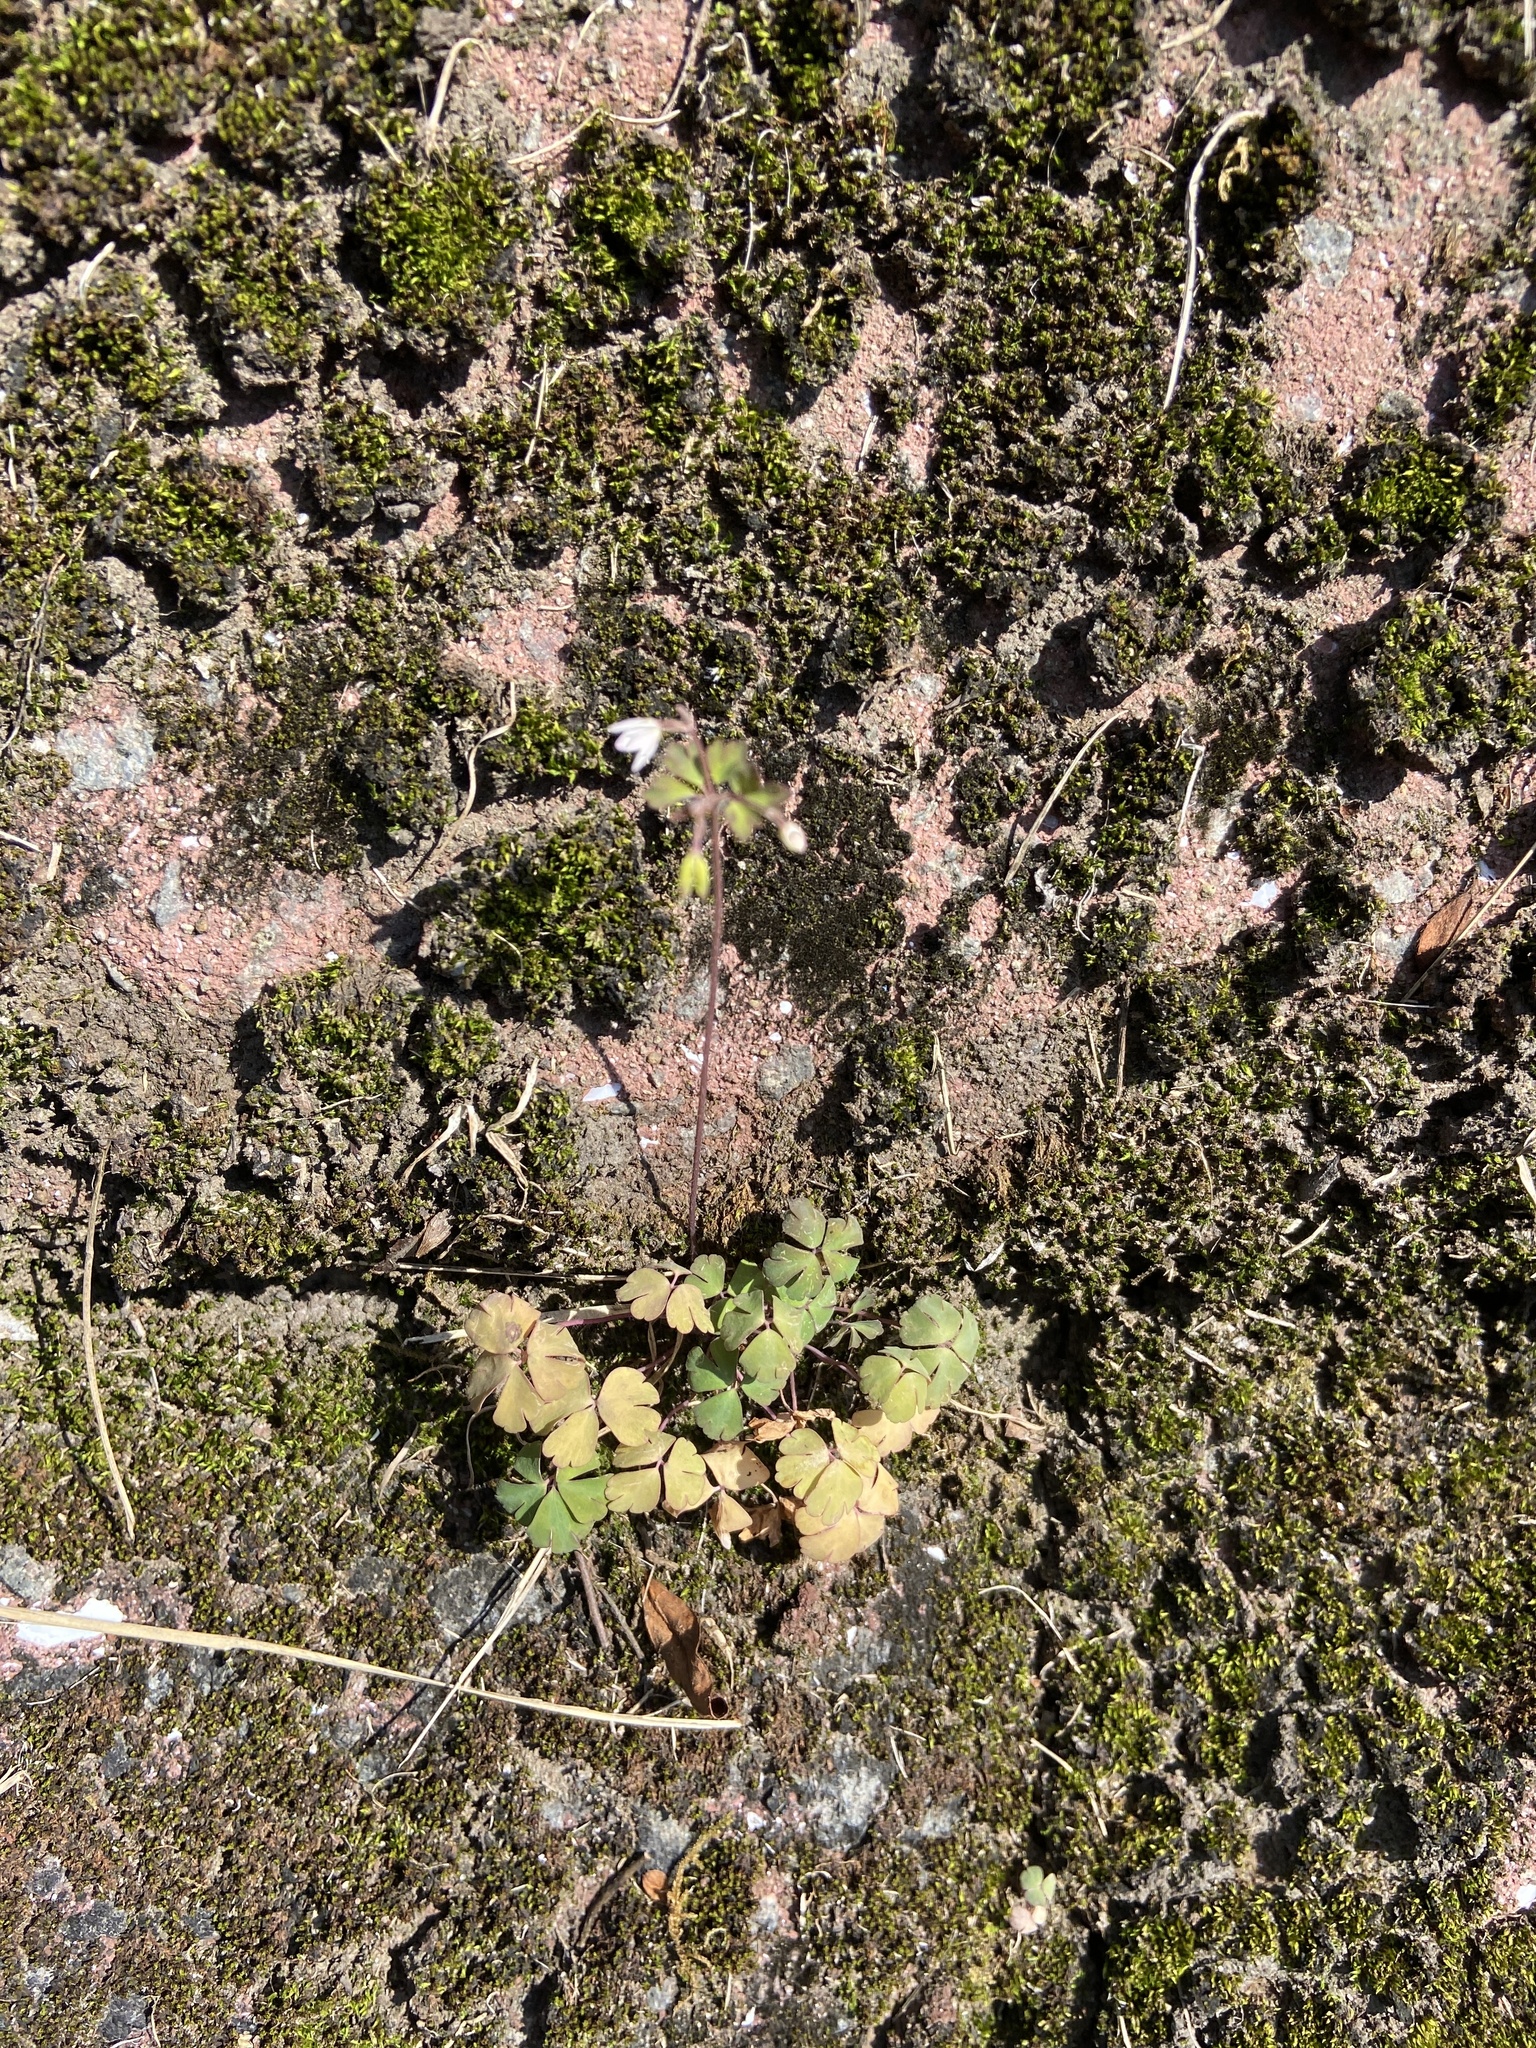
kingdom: Plantae
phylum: Tracheophyta
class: Magnoliopsida
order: Ranunculales
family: Ranunculaceae
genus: Semiaquilegia
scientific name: Semiaquilegia adoxoides
